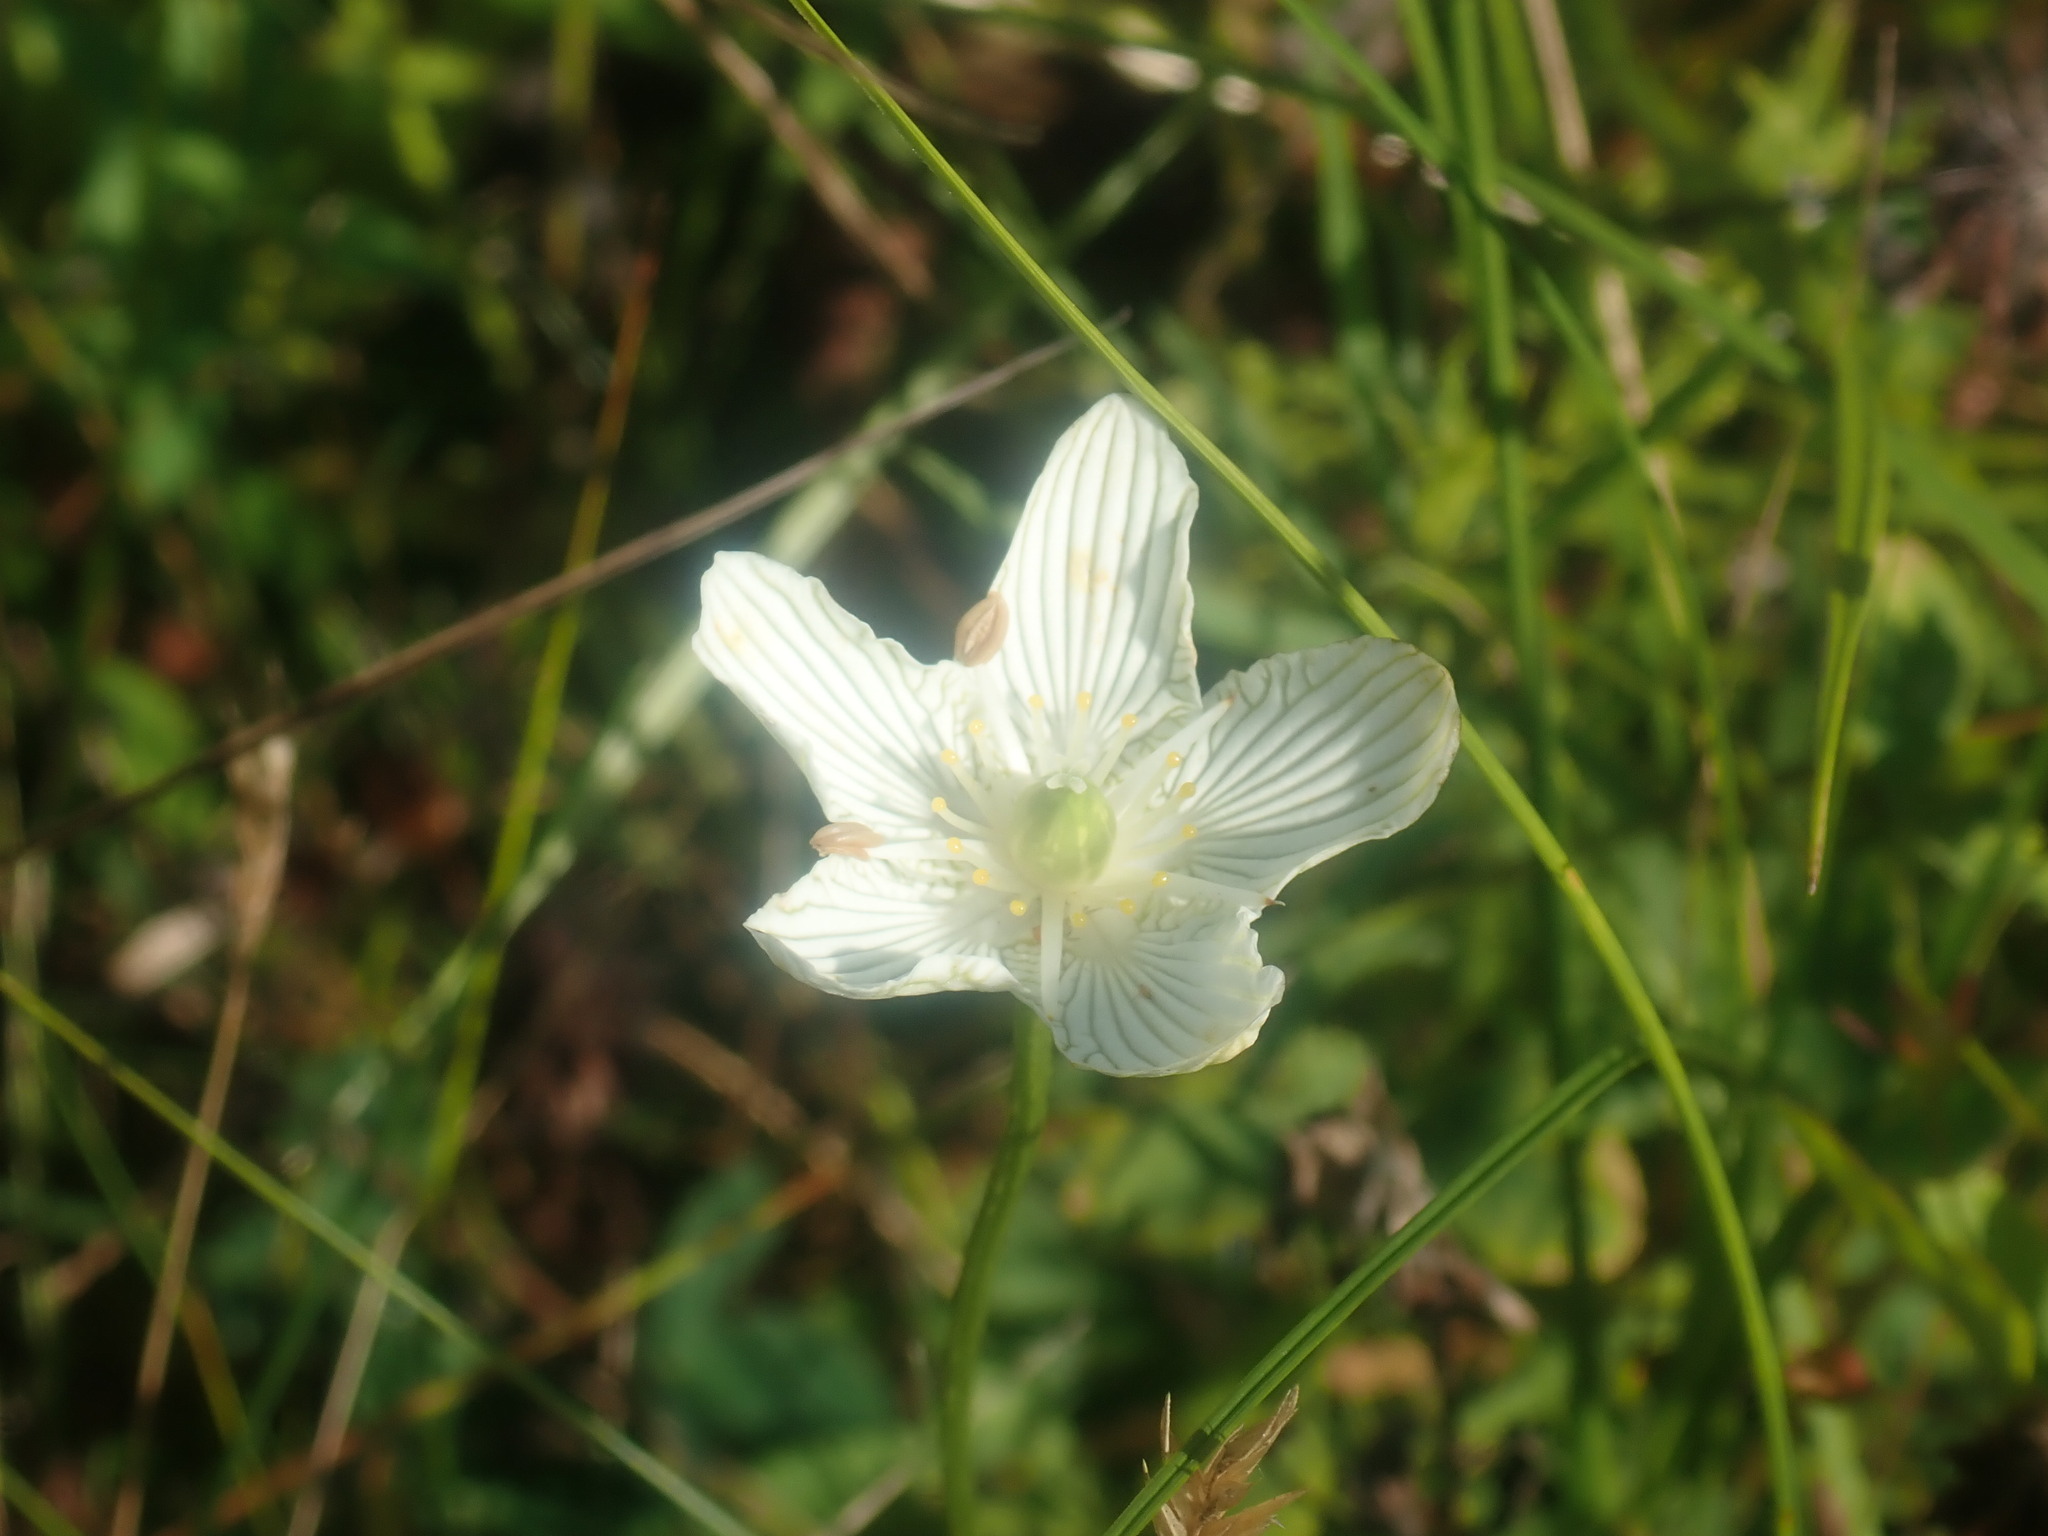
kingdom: Plantae
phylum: Tracheophyta
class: Magnoliopsida
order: Celastrales
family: Parnassiaceae
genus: Parnassia
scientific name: Parnassia glauca
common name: American grass-of-parnassus
